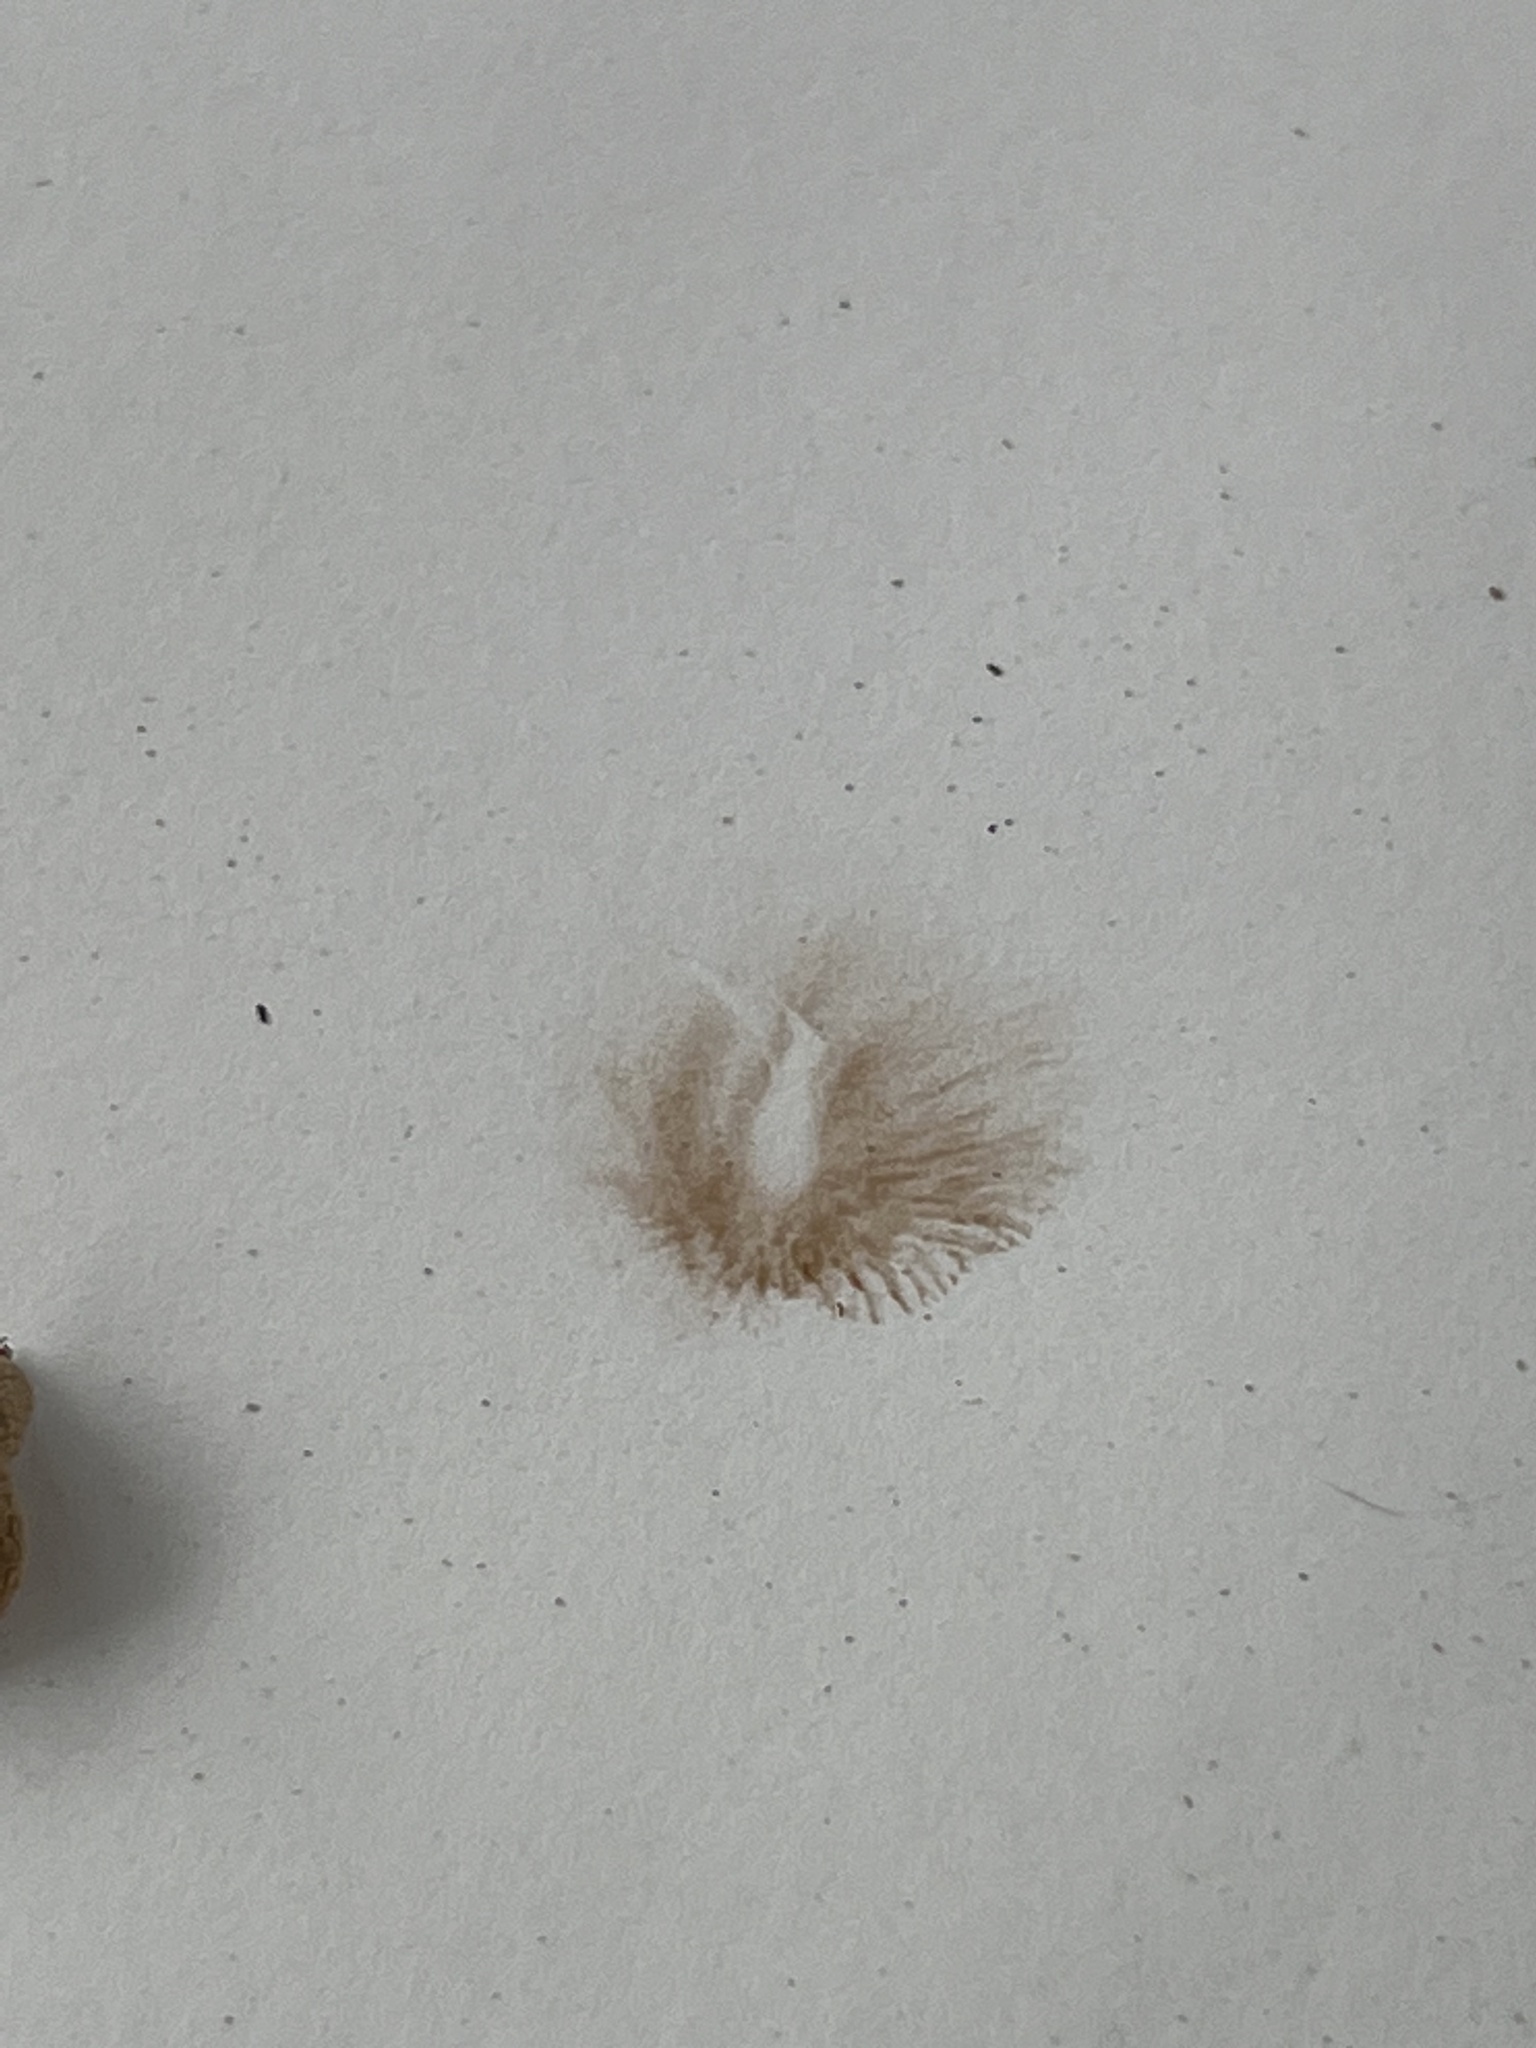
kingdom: Fungi
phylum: Basidiomycota
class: Agaricomycetes
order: Agaricales
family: Bolbitiaceae
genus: Conocybe
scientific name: Conocybe apala
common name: Milky conecap
